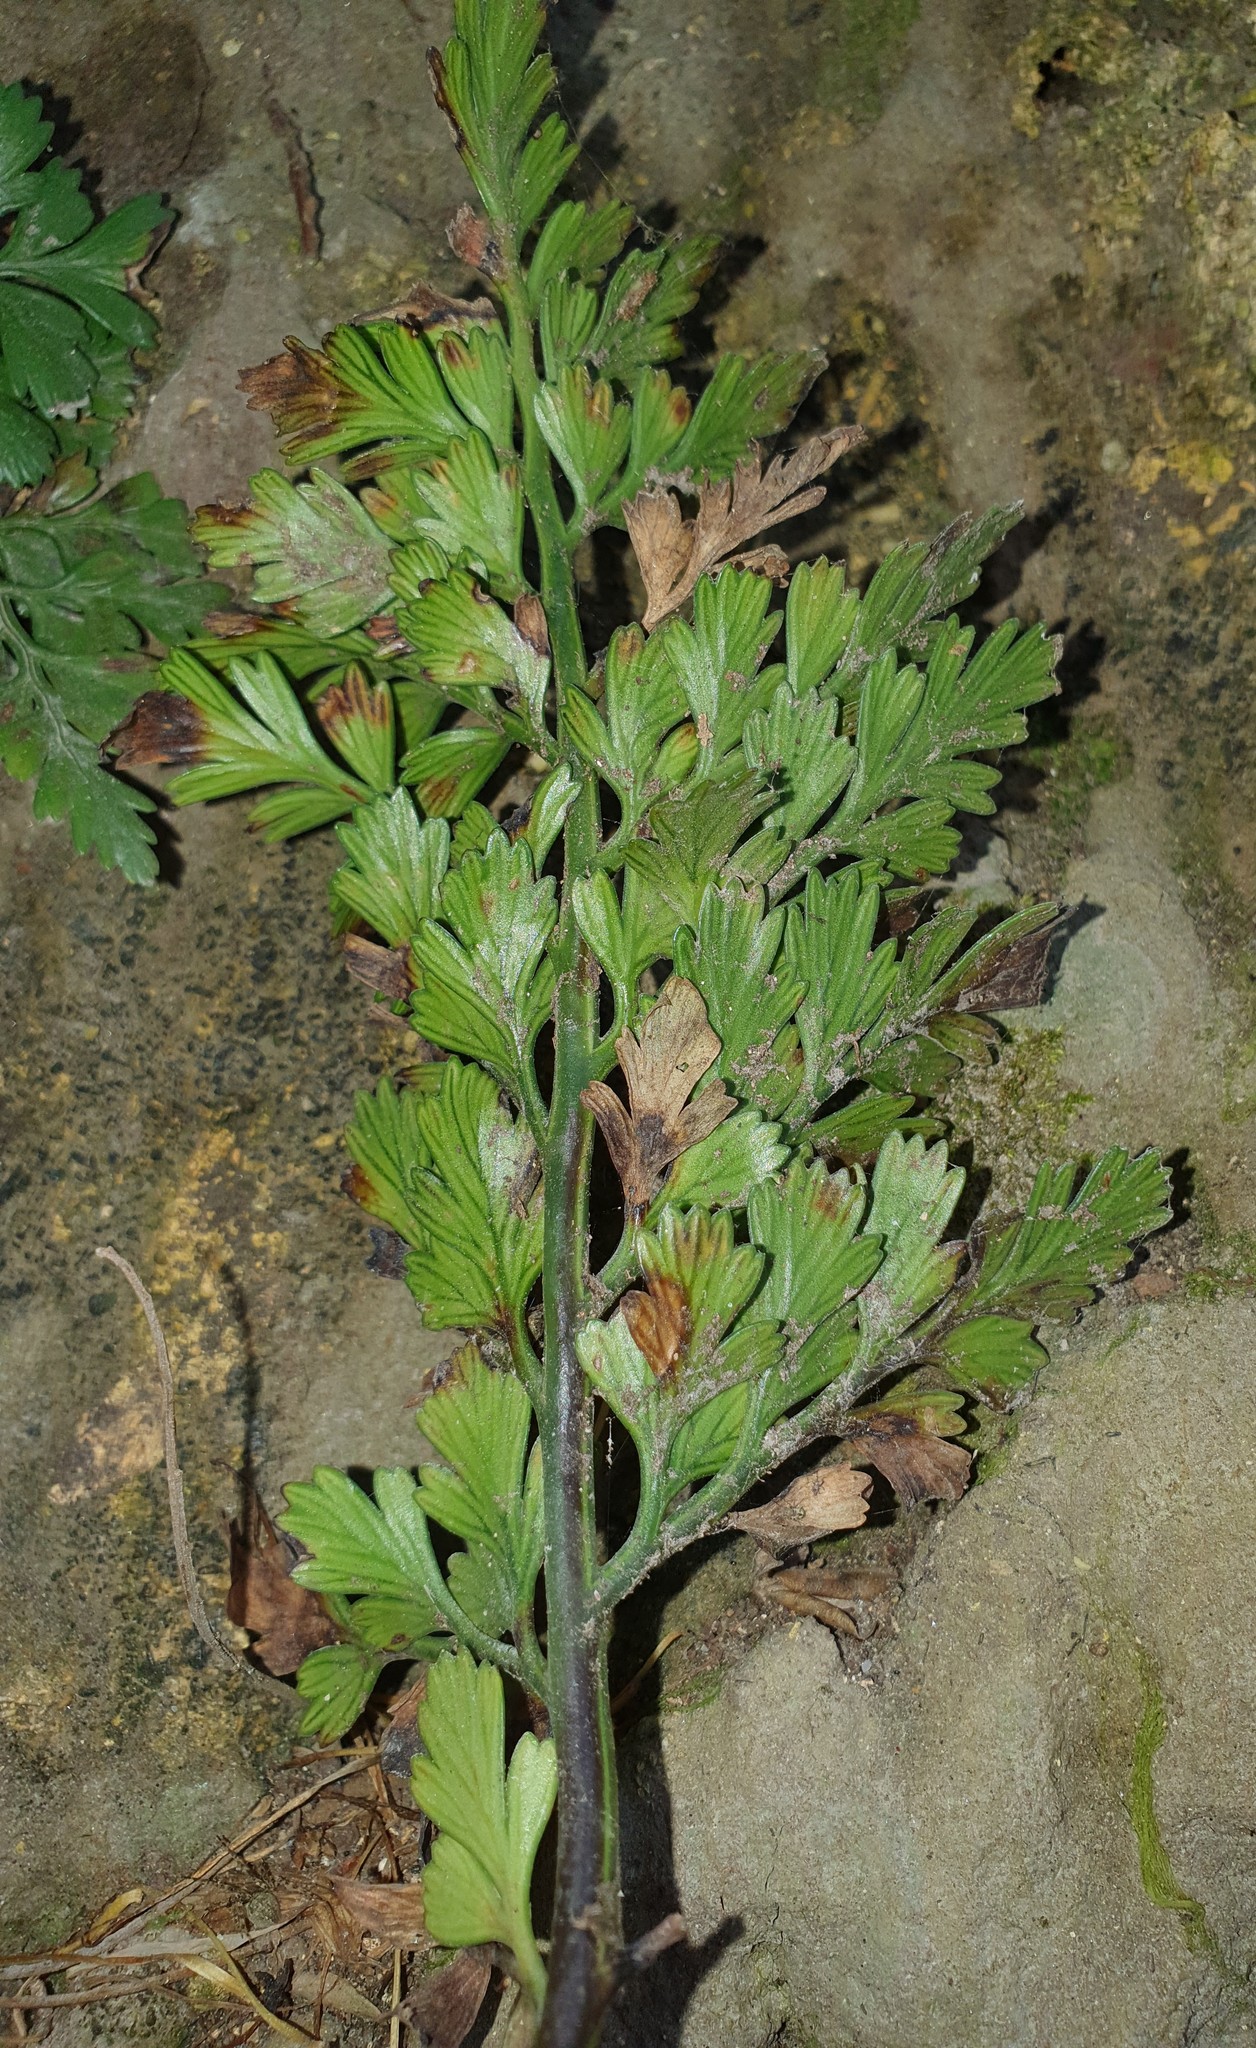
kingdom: Plantae
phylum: Tracheophyta
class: Polypodiopsida
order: Polypodiales
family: Aspleniaceae
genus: Asplenium
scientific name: Asplenium chathamense
